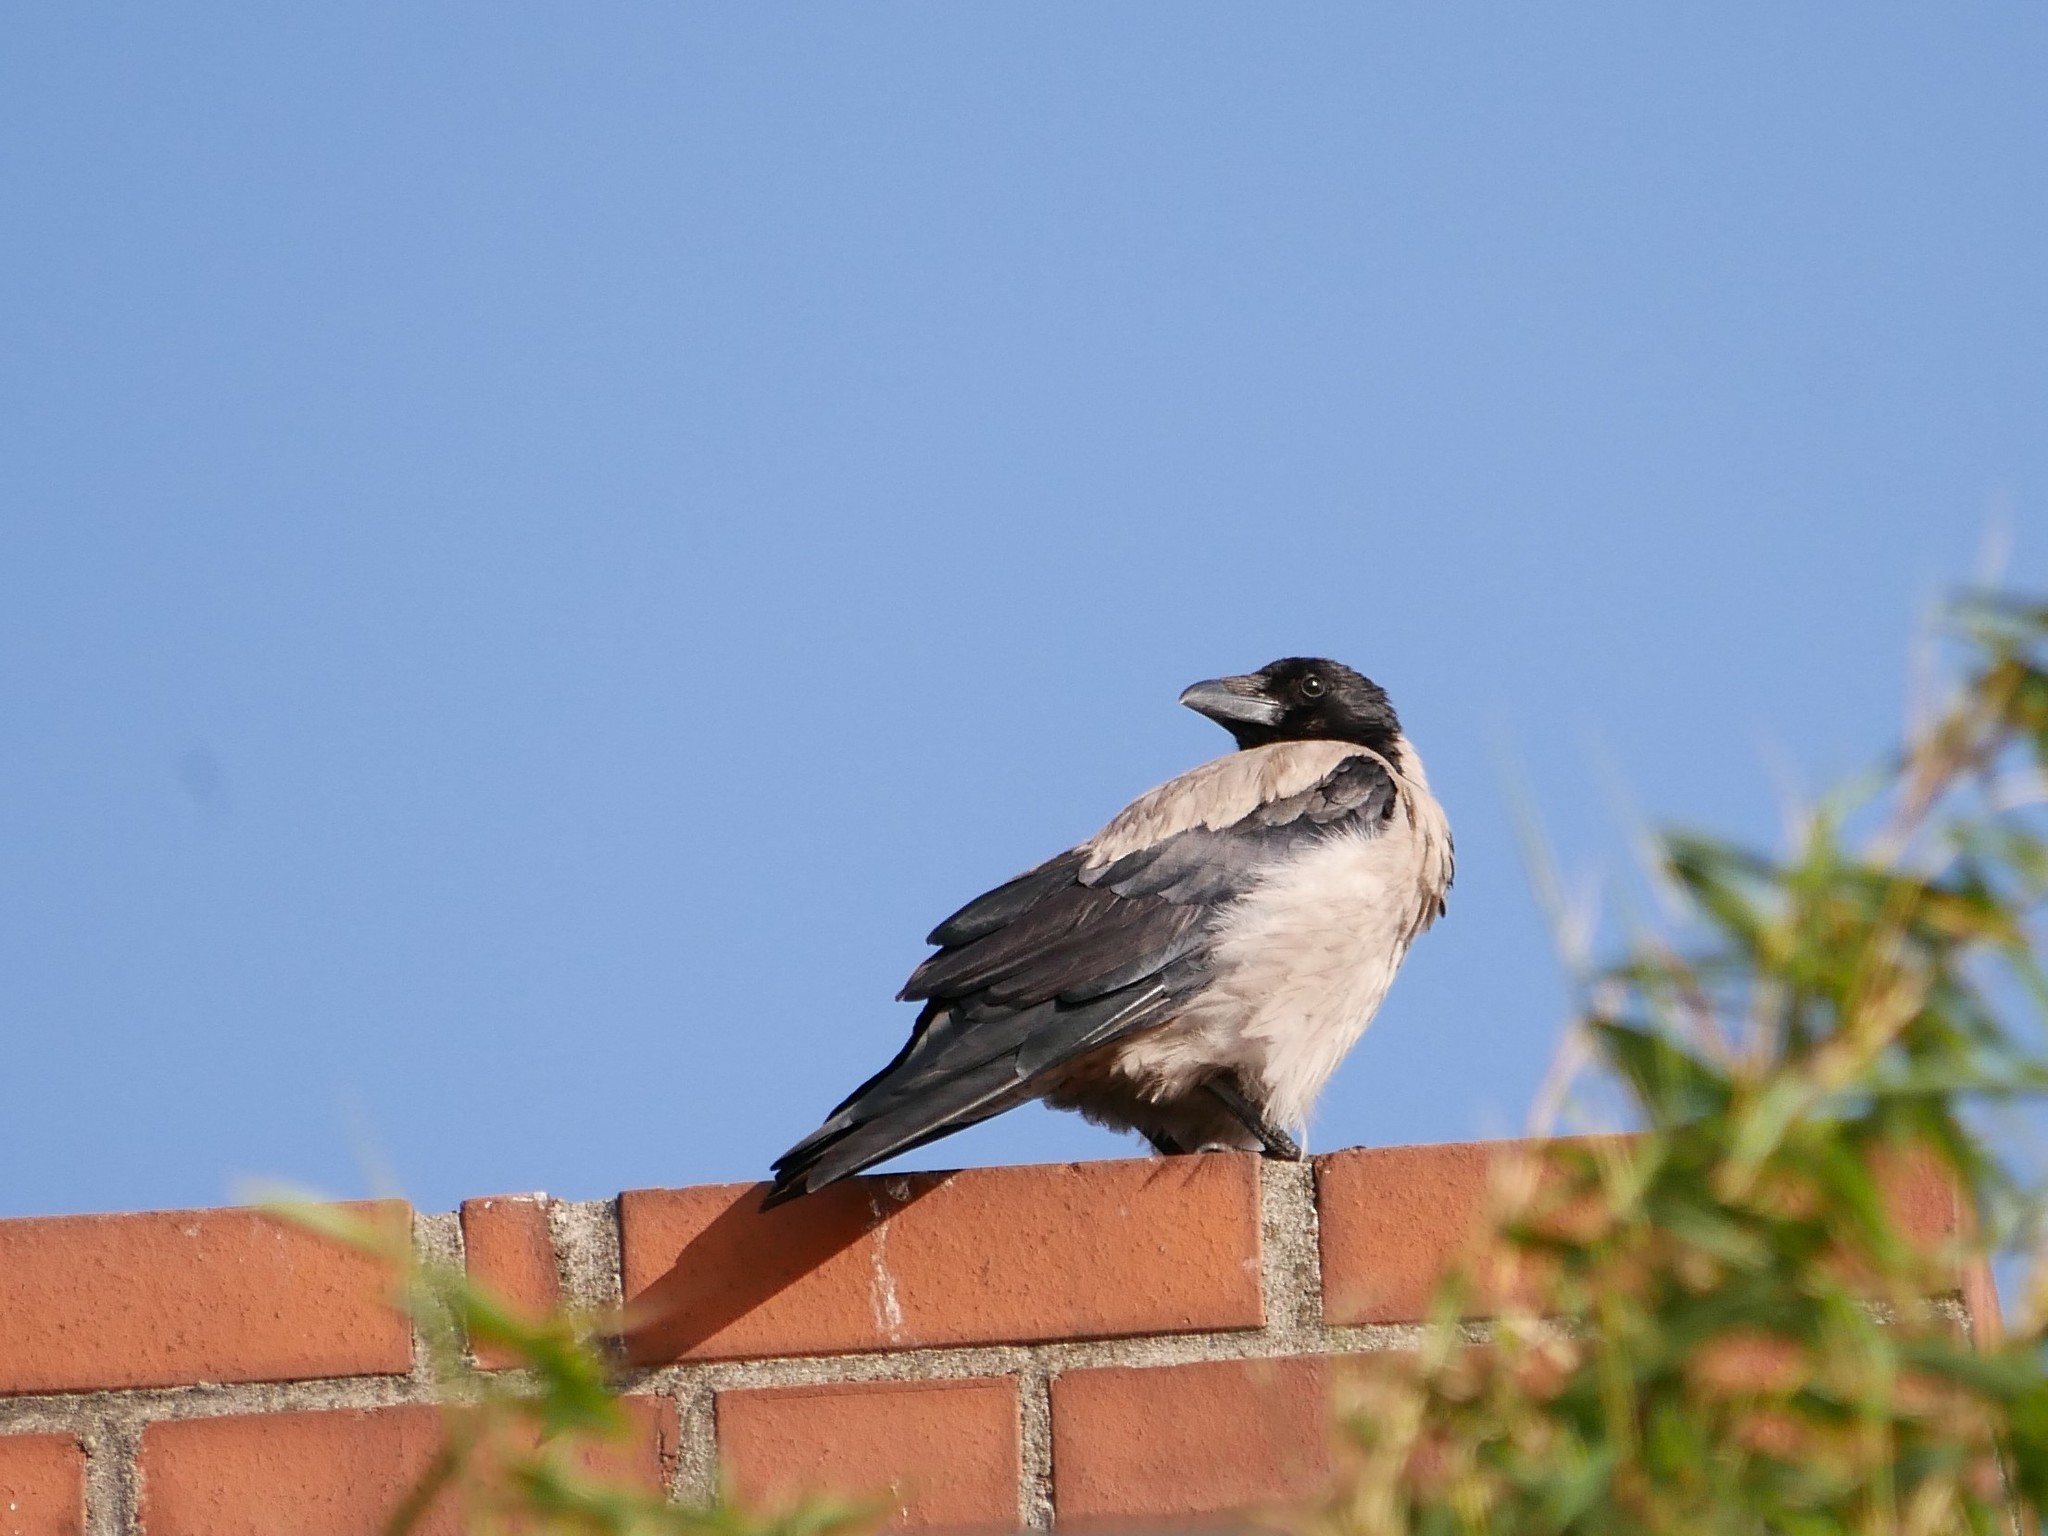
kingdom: Animalia
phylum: Chordata
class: Aves
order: Passeriformes
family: Corvidae
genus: Corvus
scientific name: Corvus cornix
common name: Hooded crow
